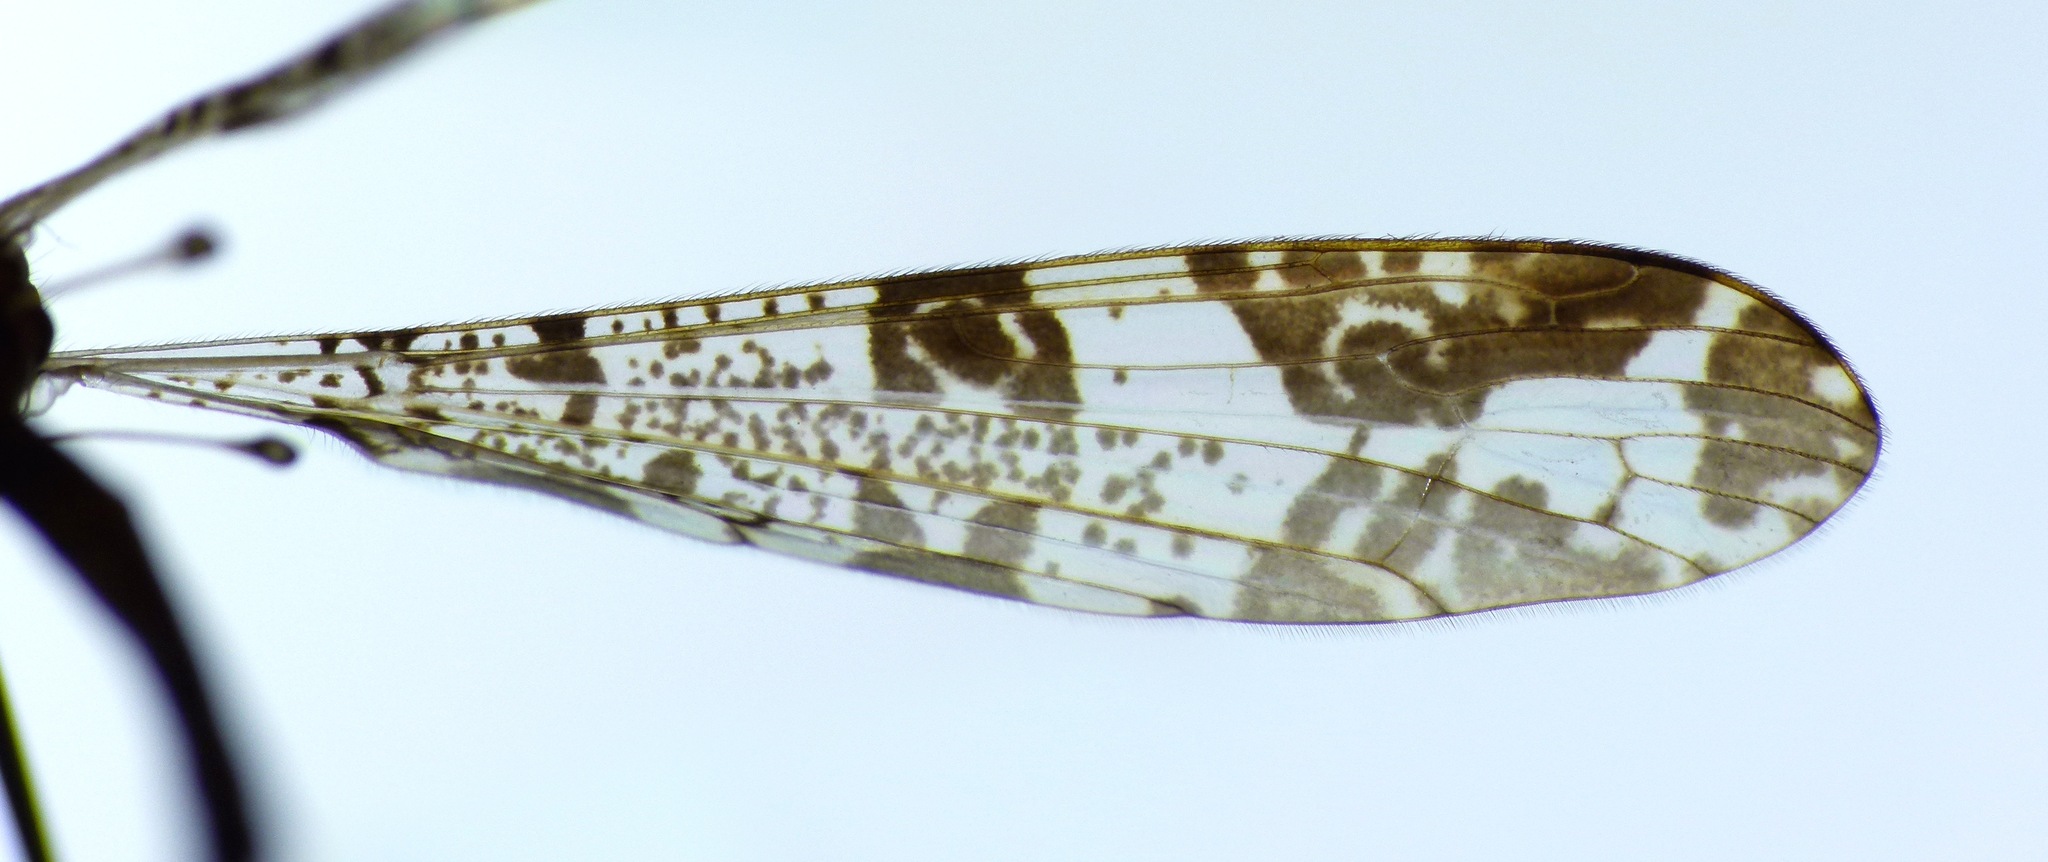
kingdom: Animalia
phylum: Arthropoda
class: Insecta
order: Diptera
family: Limoniidae
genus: Discobola
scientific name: Discobola venustula
